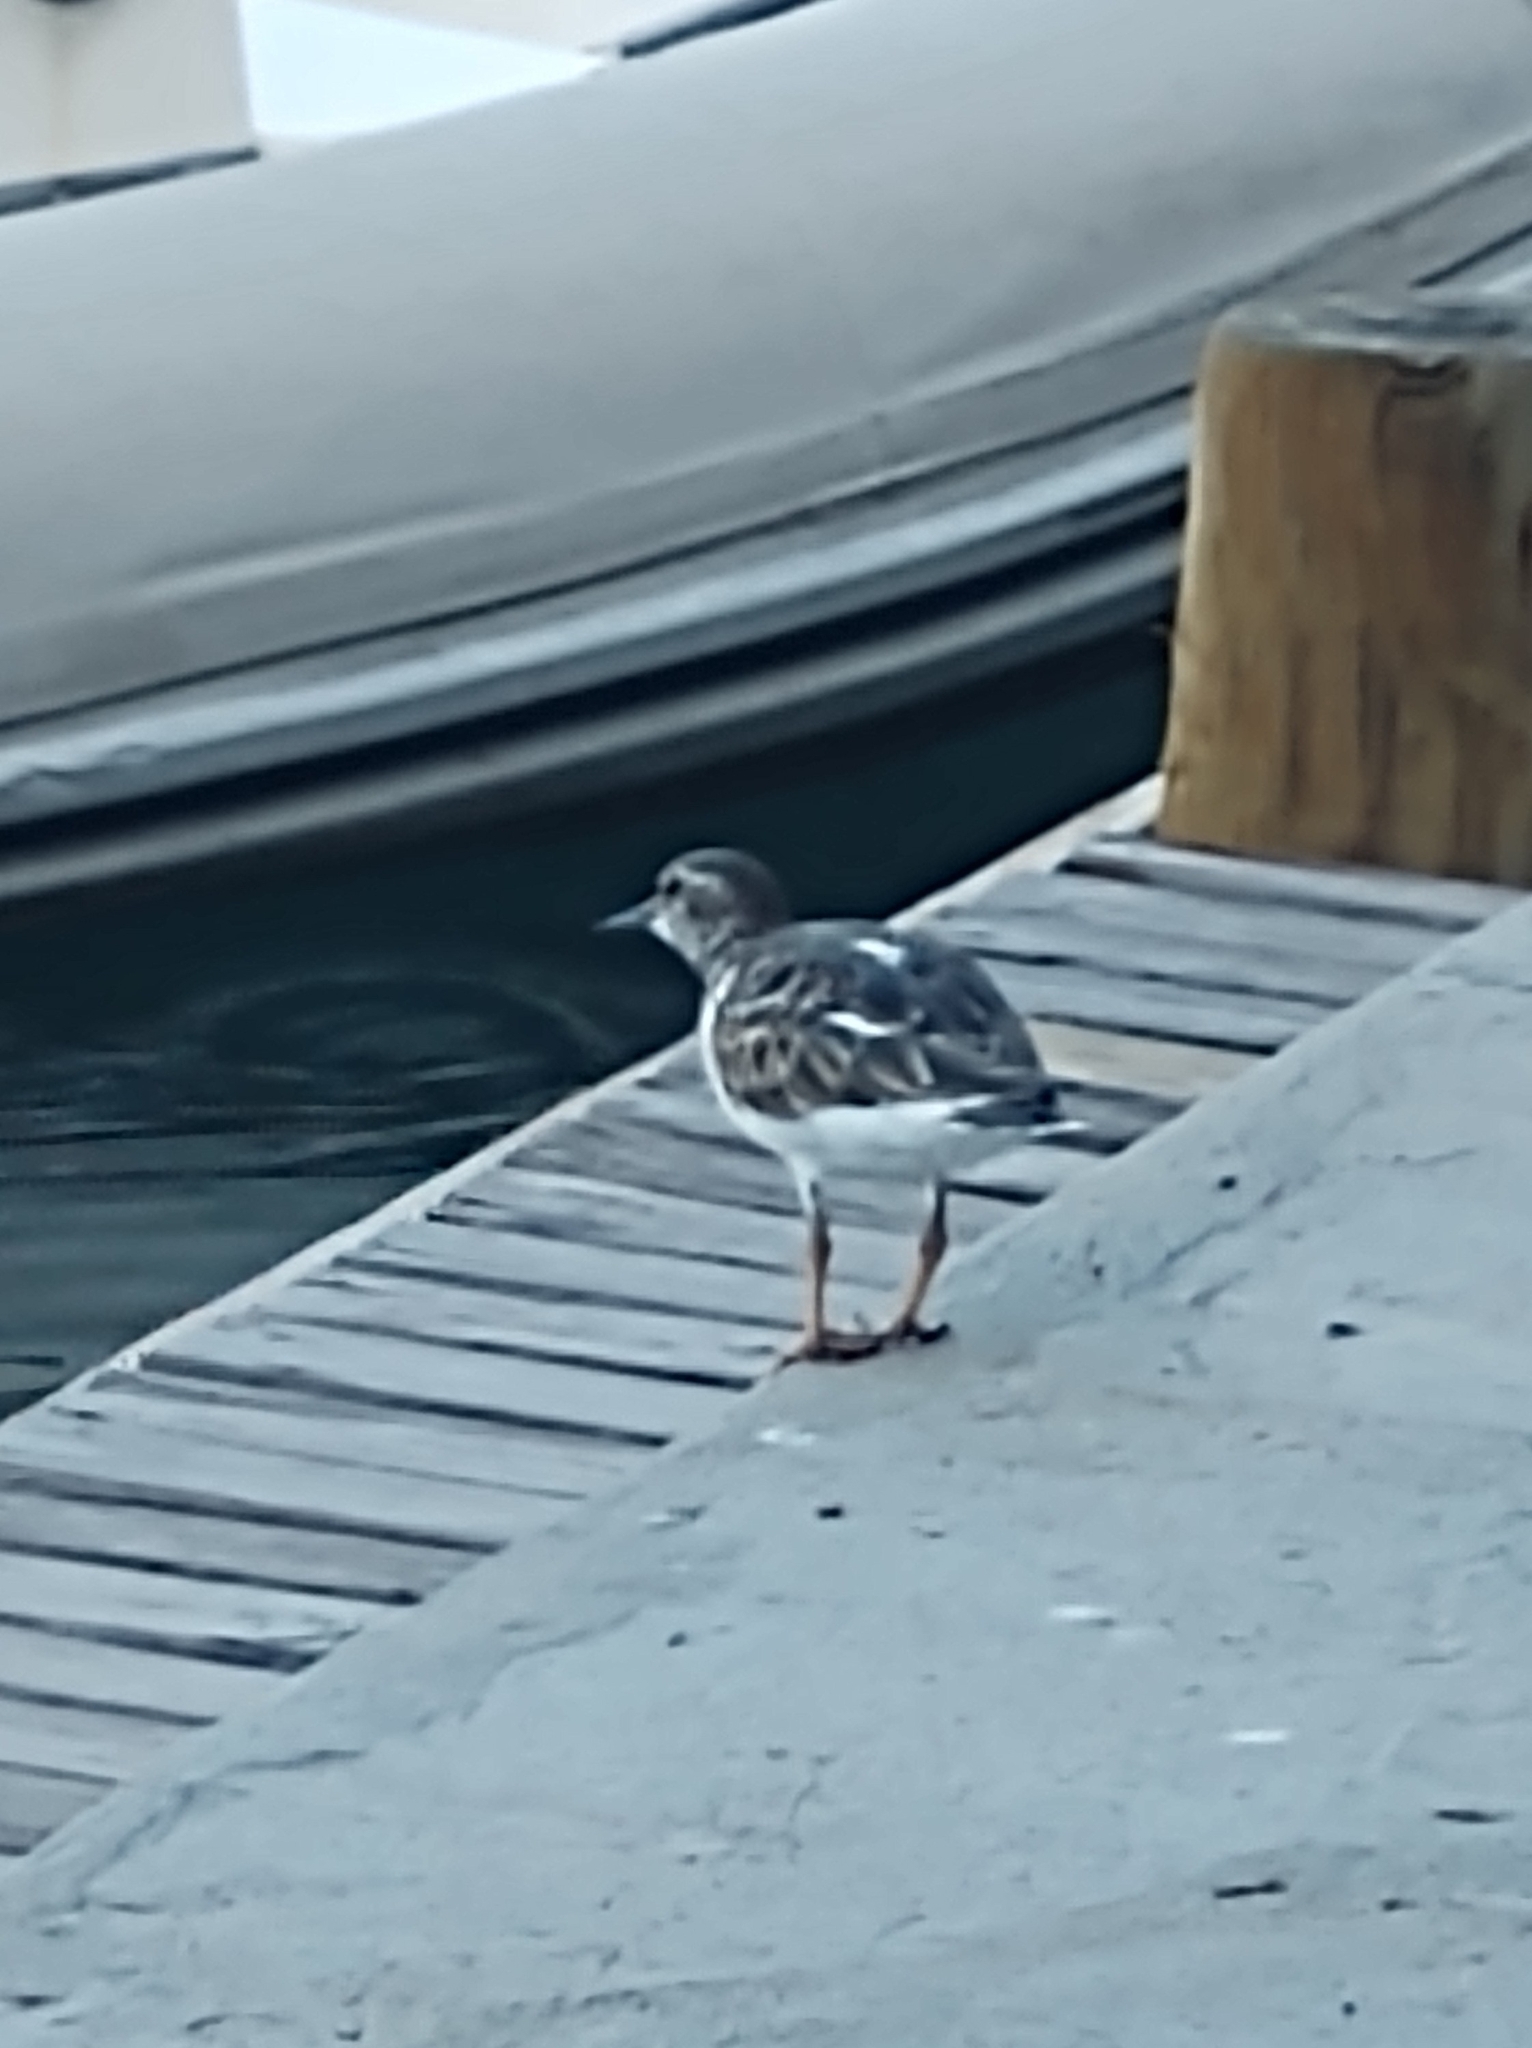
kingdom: Animalia
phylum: Chordata
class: Aves
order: Charadriiformes
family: Scolopacidae
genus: Arenaria
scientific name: Arenaria interpres
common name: Ruddy turnstone
